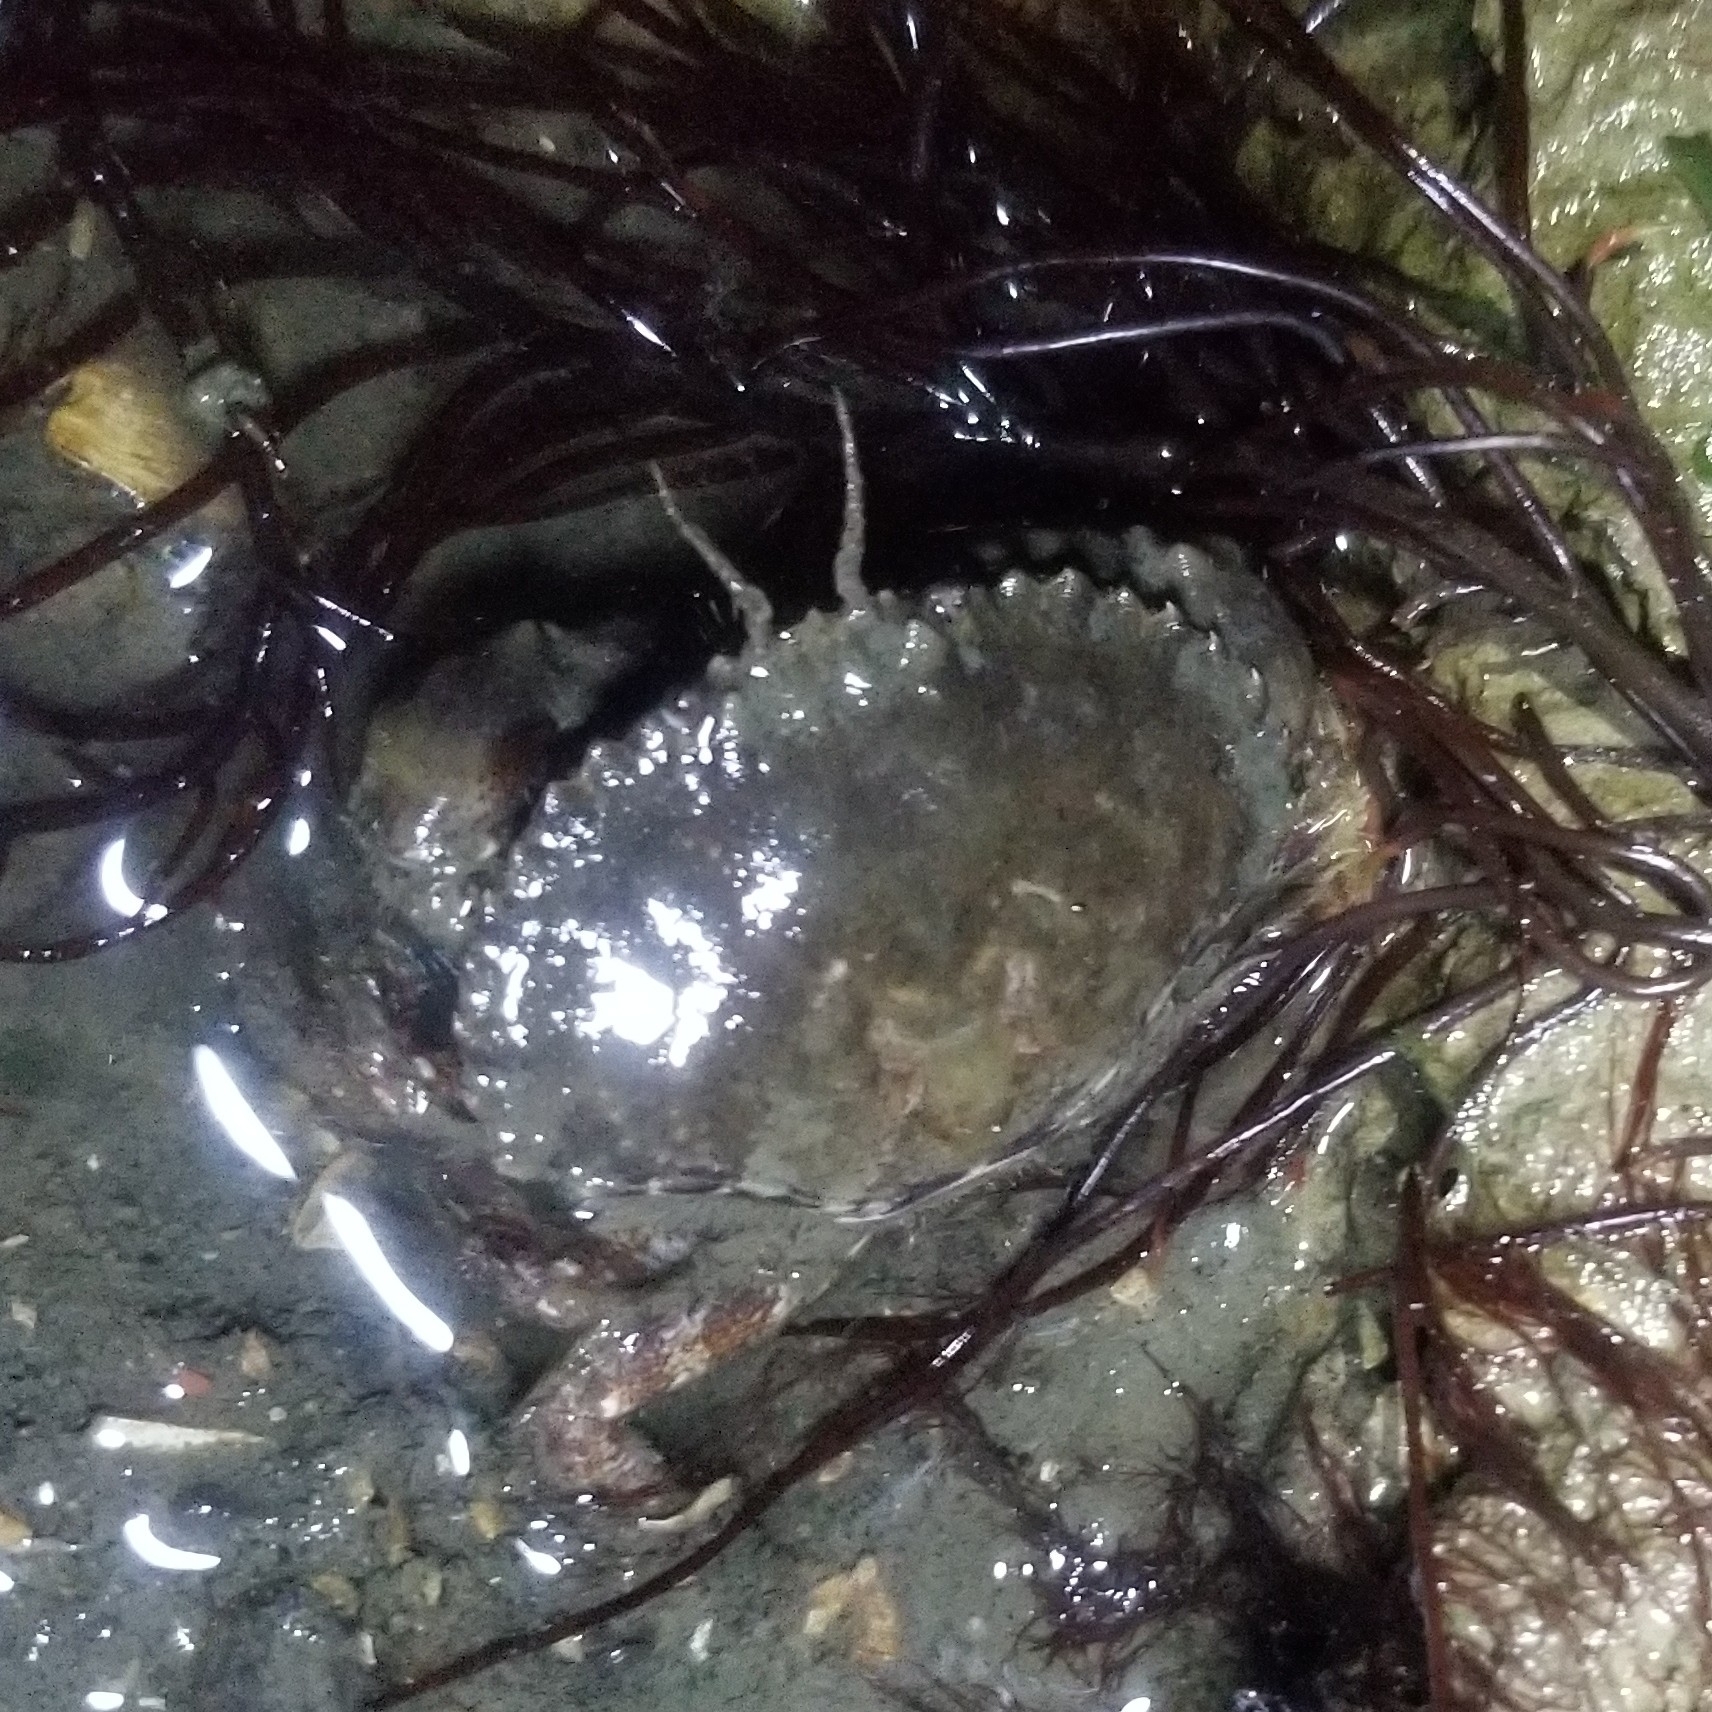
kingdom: Animalia
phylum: Arthropoda
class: Malacostraca
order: Decapoda
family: Cancridae
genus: Romaleon
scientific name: Romaleon antennarium
